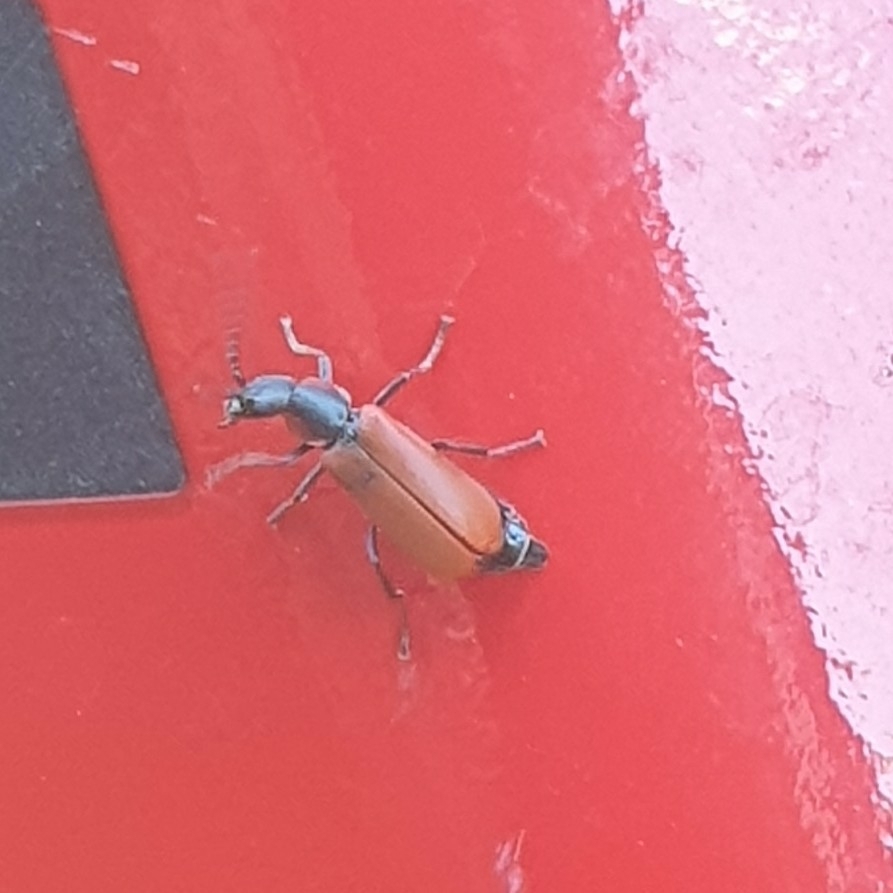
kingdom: Animalia
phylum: Arthropoda
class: Insecta
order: Coleoptera
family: Melyridae
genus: Anthocomus
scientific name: Anthocomus rufus
